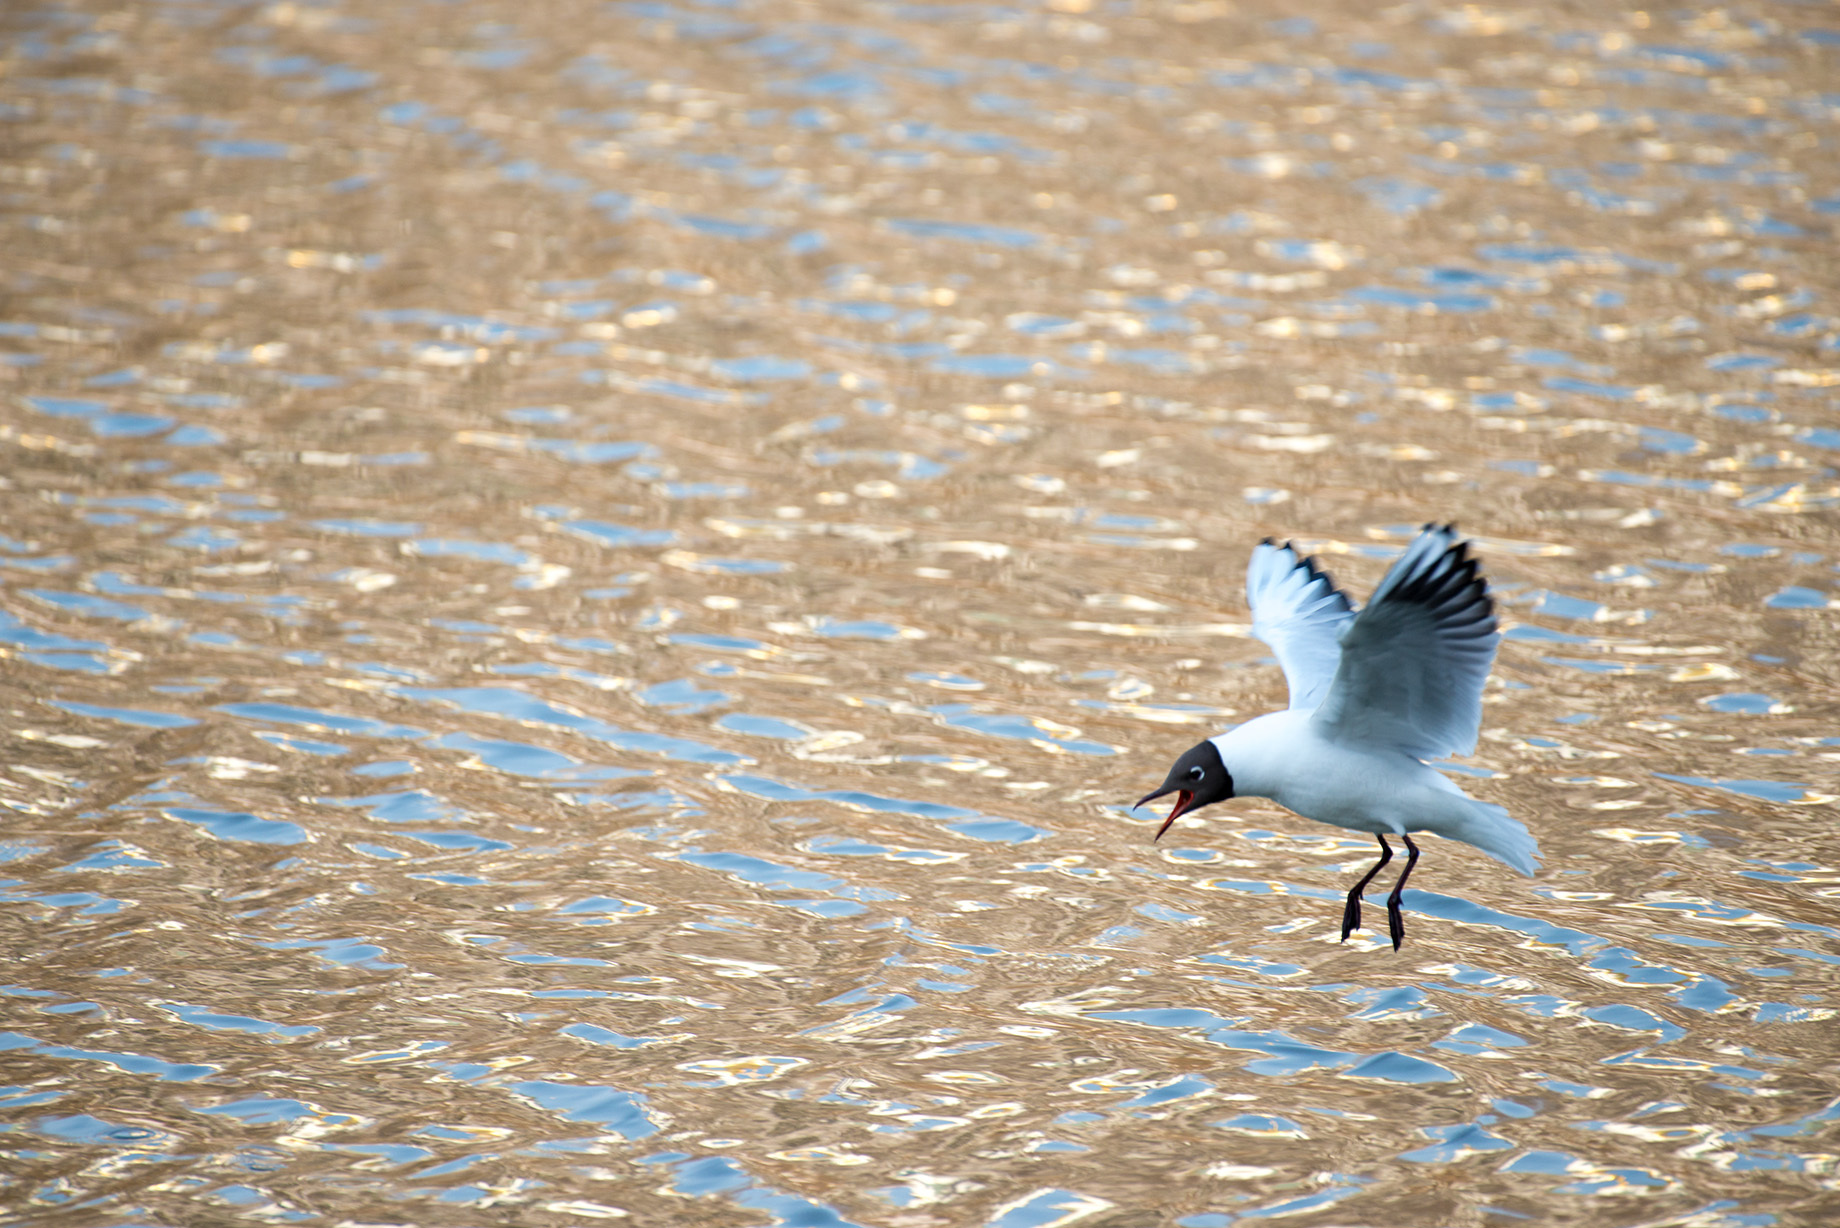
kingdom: Animalia
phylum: Chordata
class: Aves
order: Charadriiformes
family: Laridae
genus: Chroicocephalus
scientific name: Chroicocephalus ridibundus
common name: Black-headed gull
